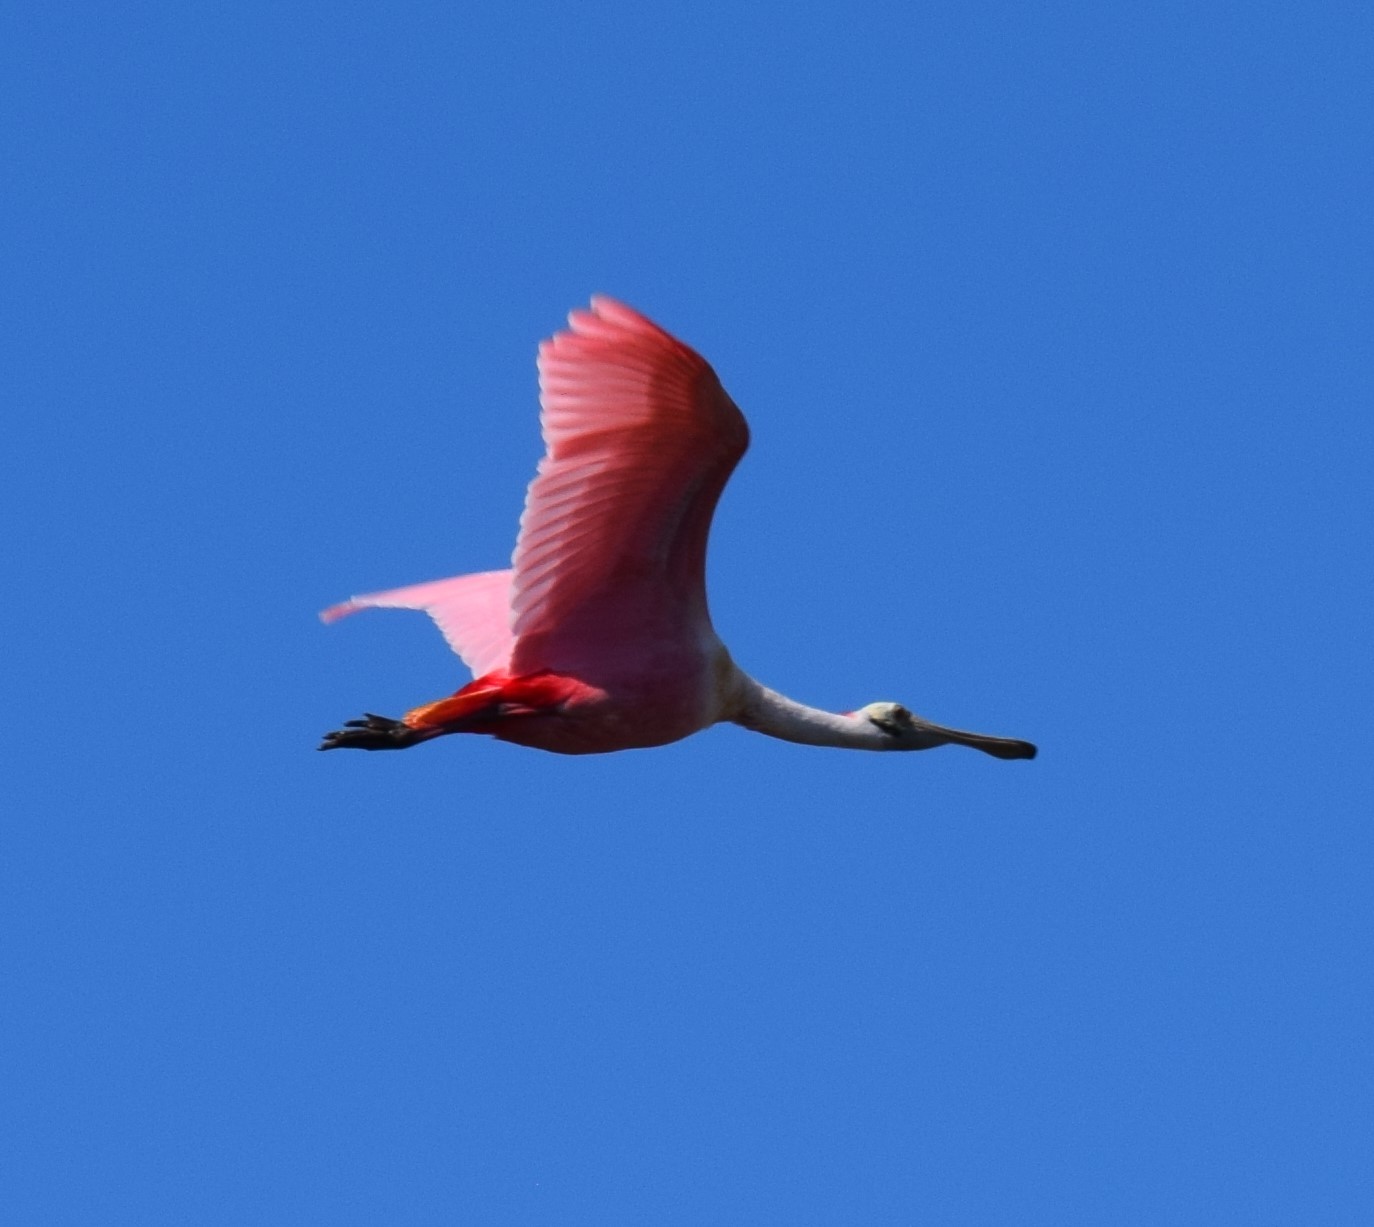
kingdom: Animalia
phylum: Chordata
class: Aves
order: Pelecaniformes
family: Threskiornithidae
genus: Platalea
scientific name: Platalea ajaja
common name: Roseate spoonbill
